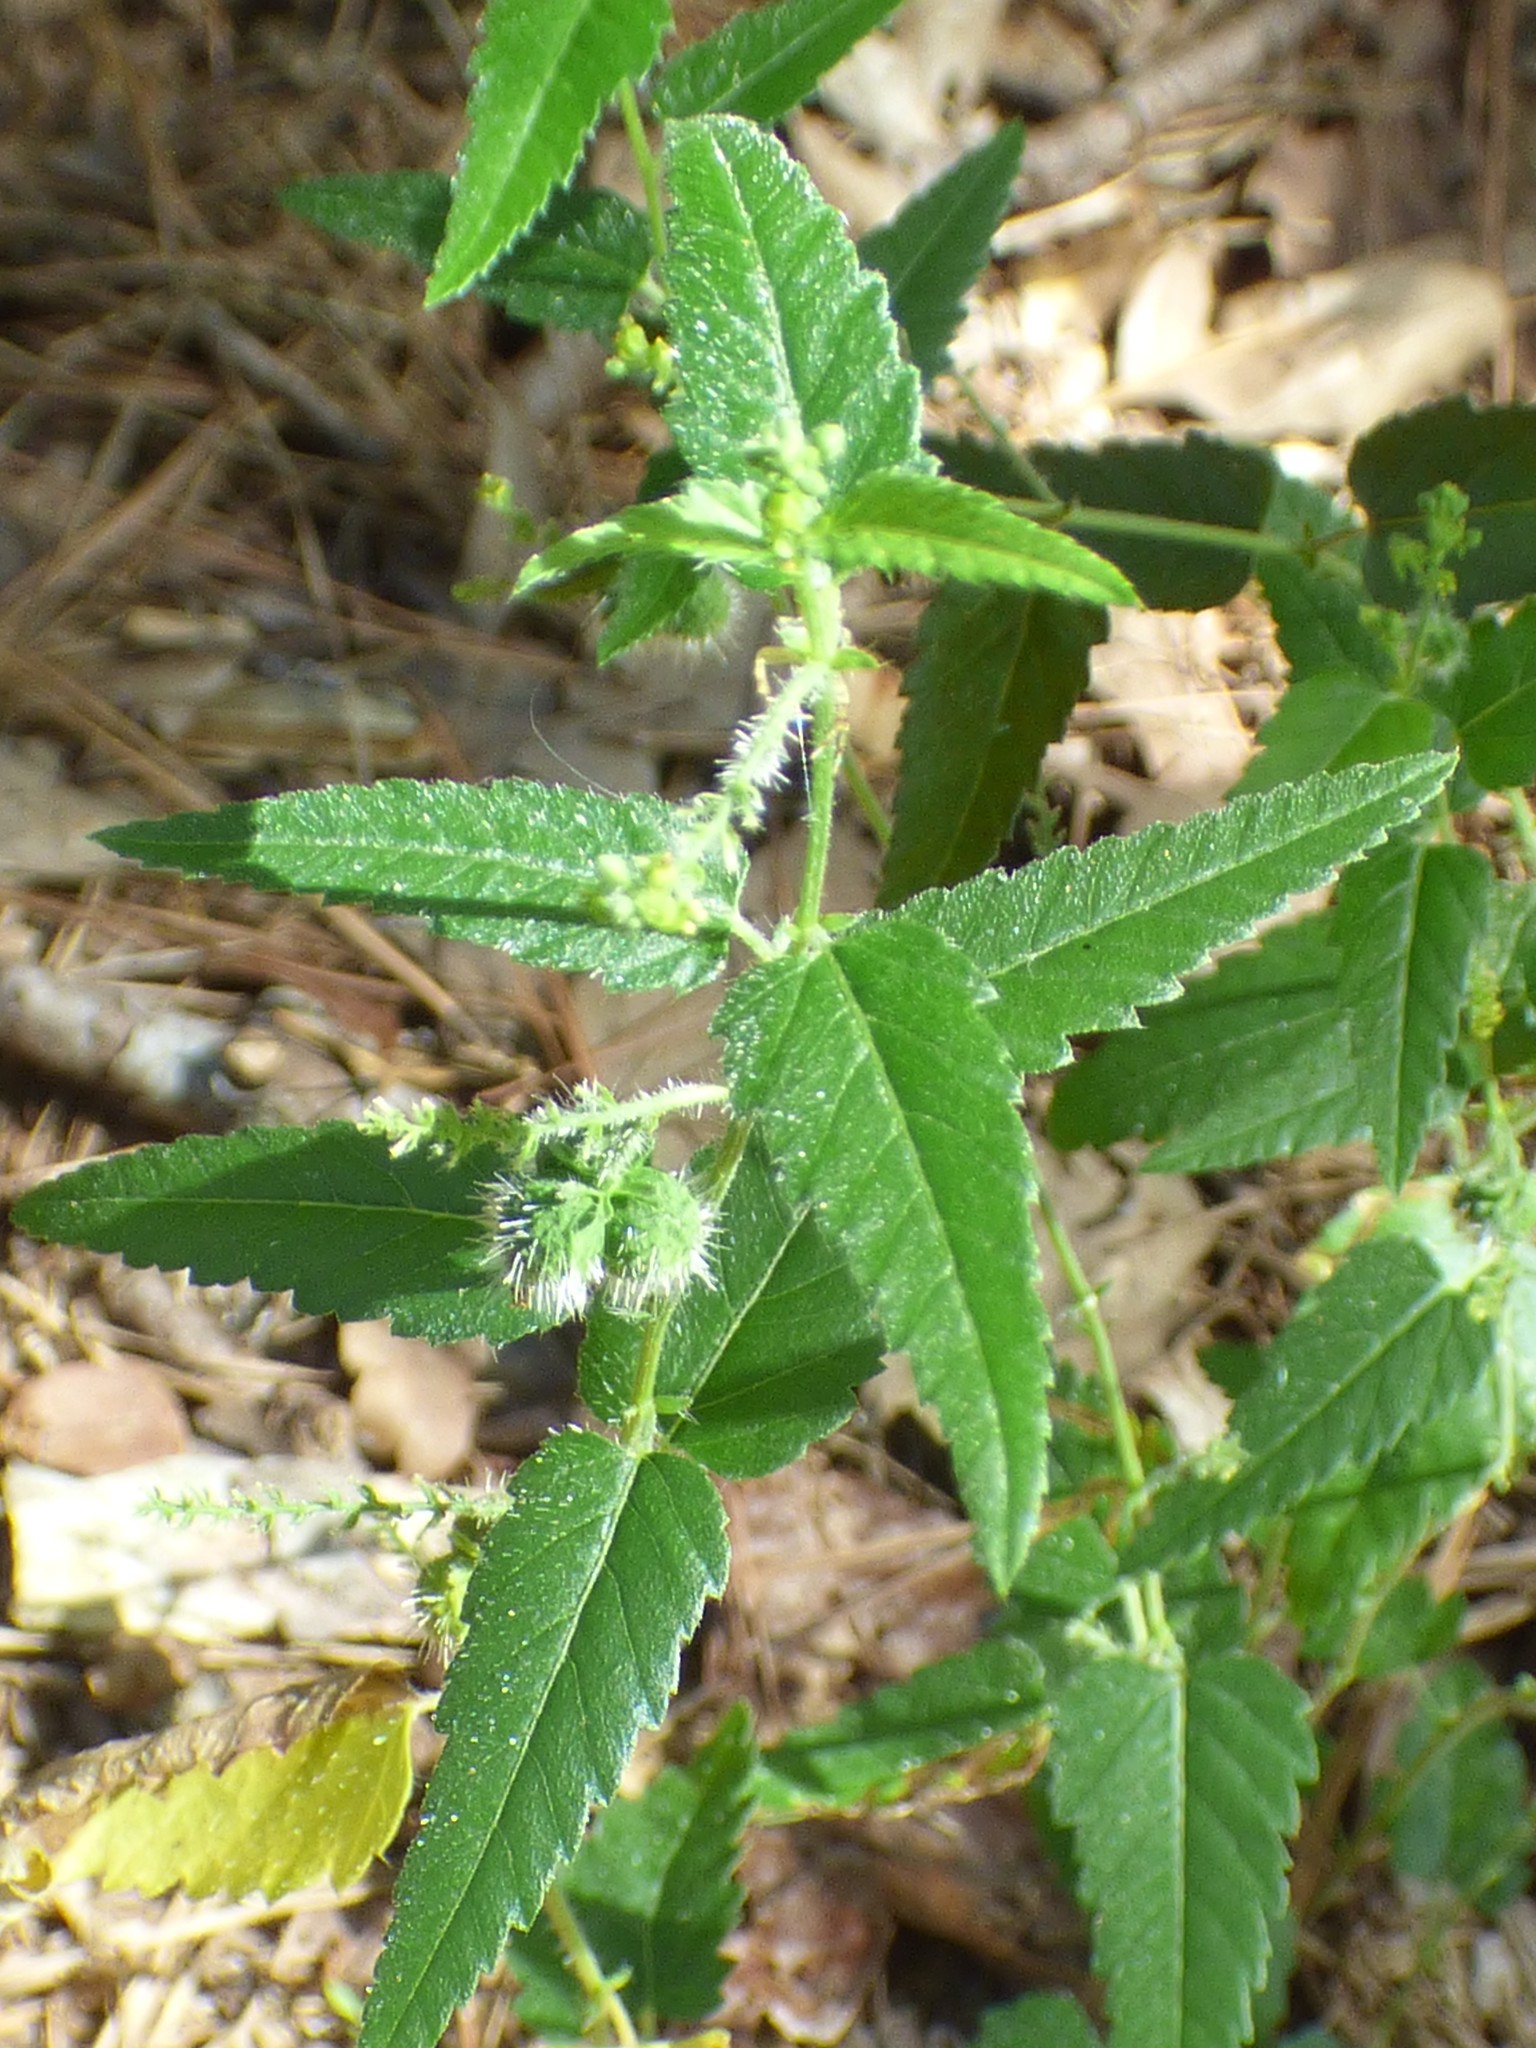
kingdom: Plantae
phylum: Tracheophyta
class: Magnoliopsida
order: Malpighiales
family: Euphorbiaceae
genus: Tragia
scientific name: Tragia urticifolia
